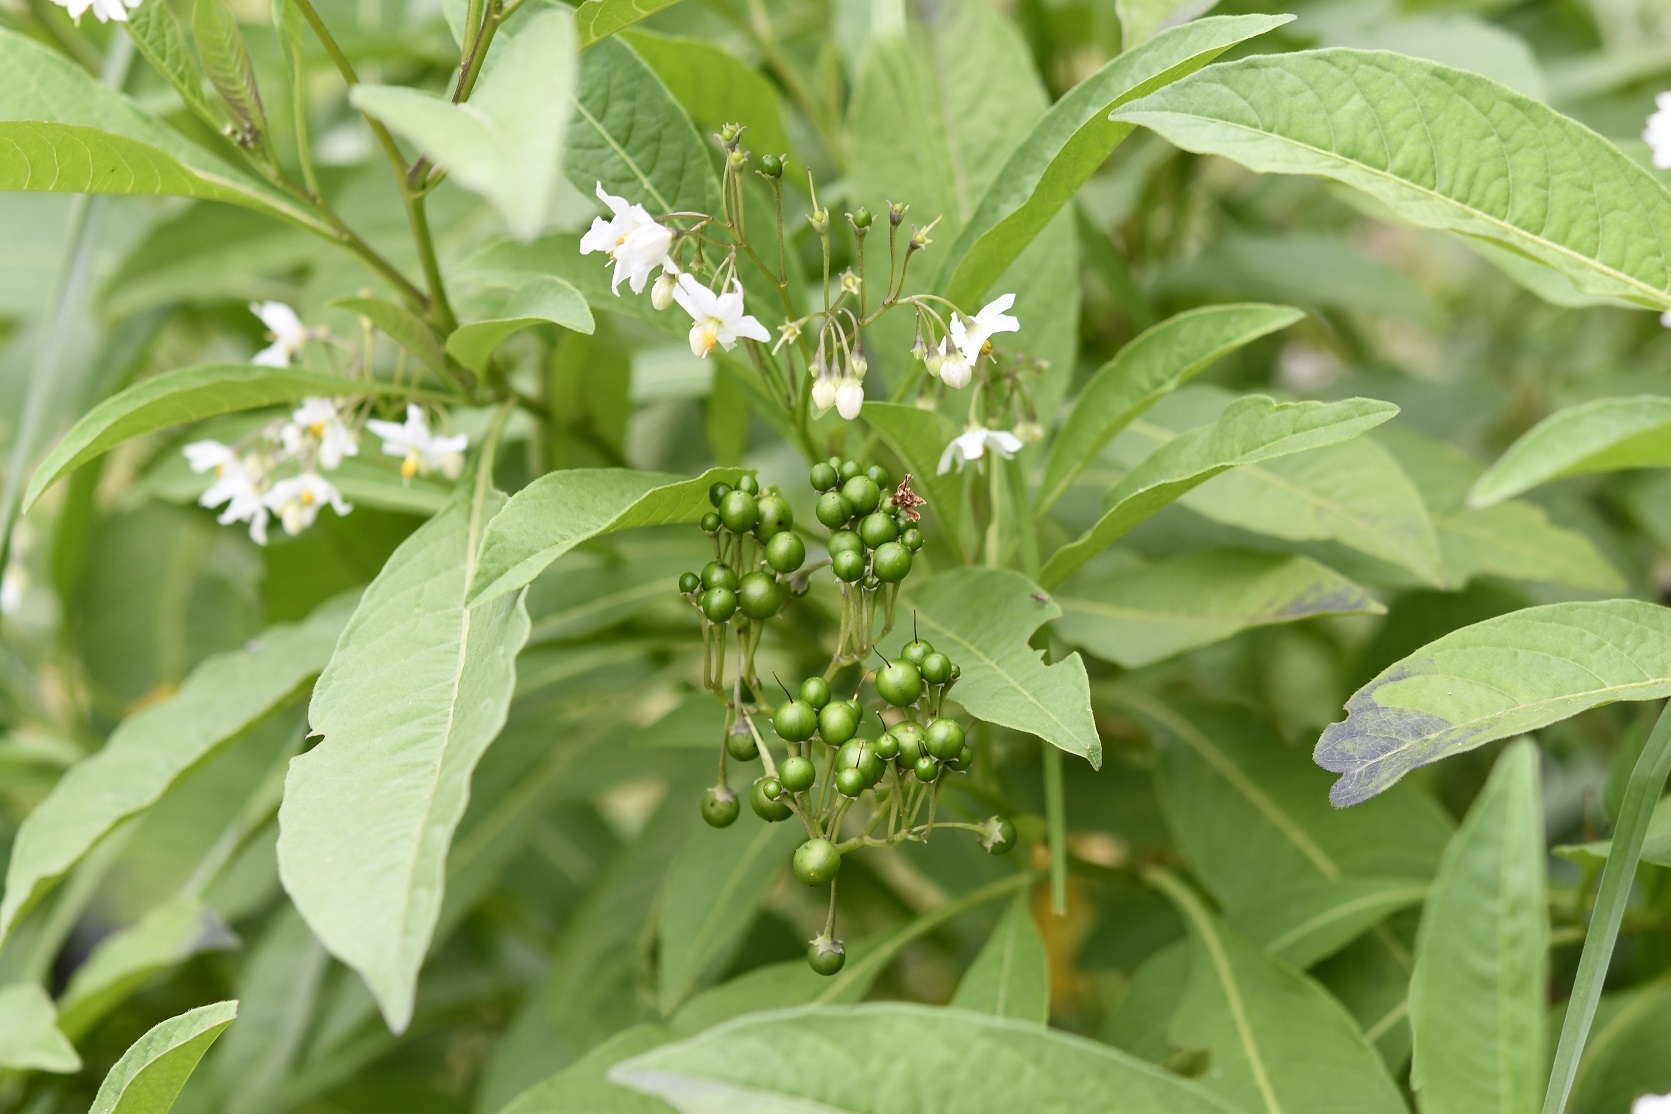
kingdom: Plantae
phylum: Tracheophyta
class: Magnoliopsida
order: Solanales
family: Solanaceae
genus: Solanum
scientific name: Solanum pubigerum
